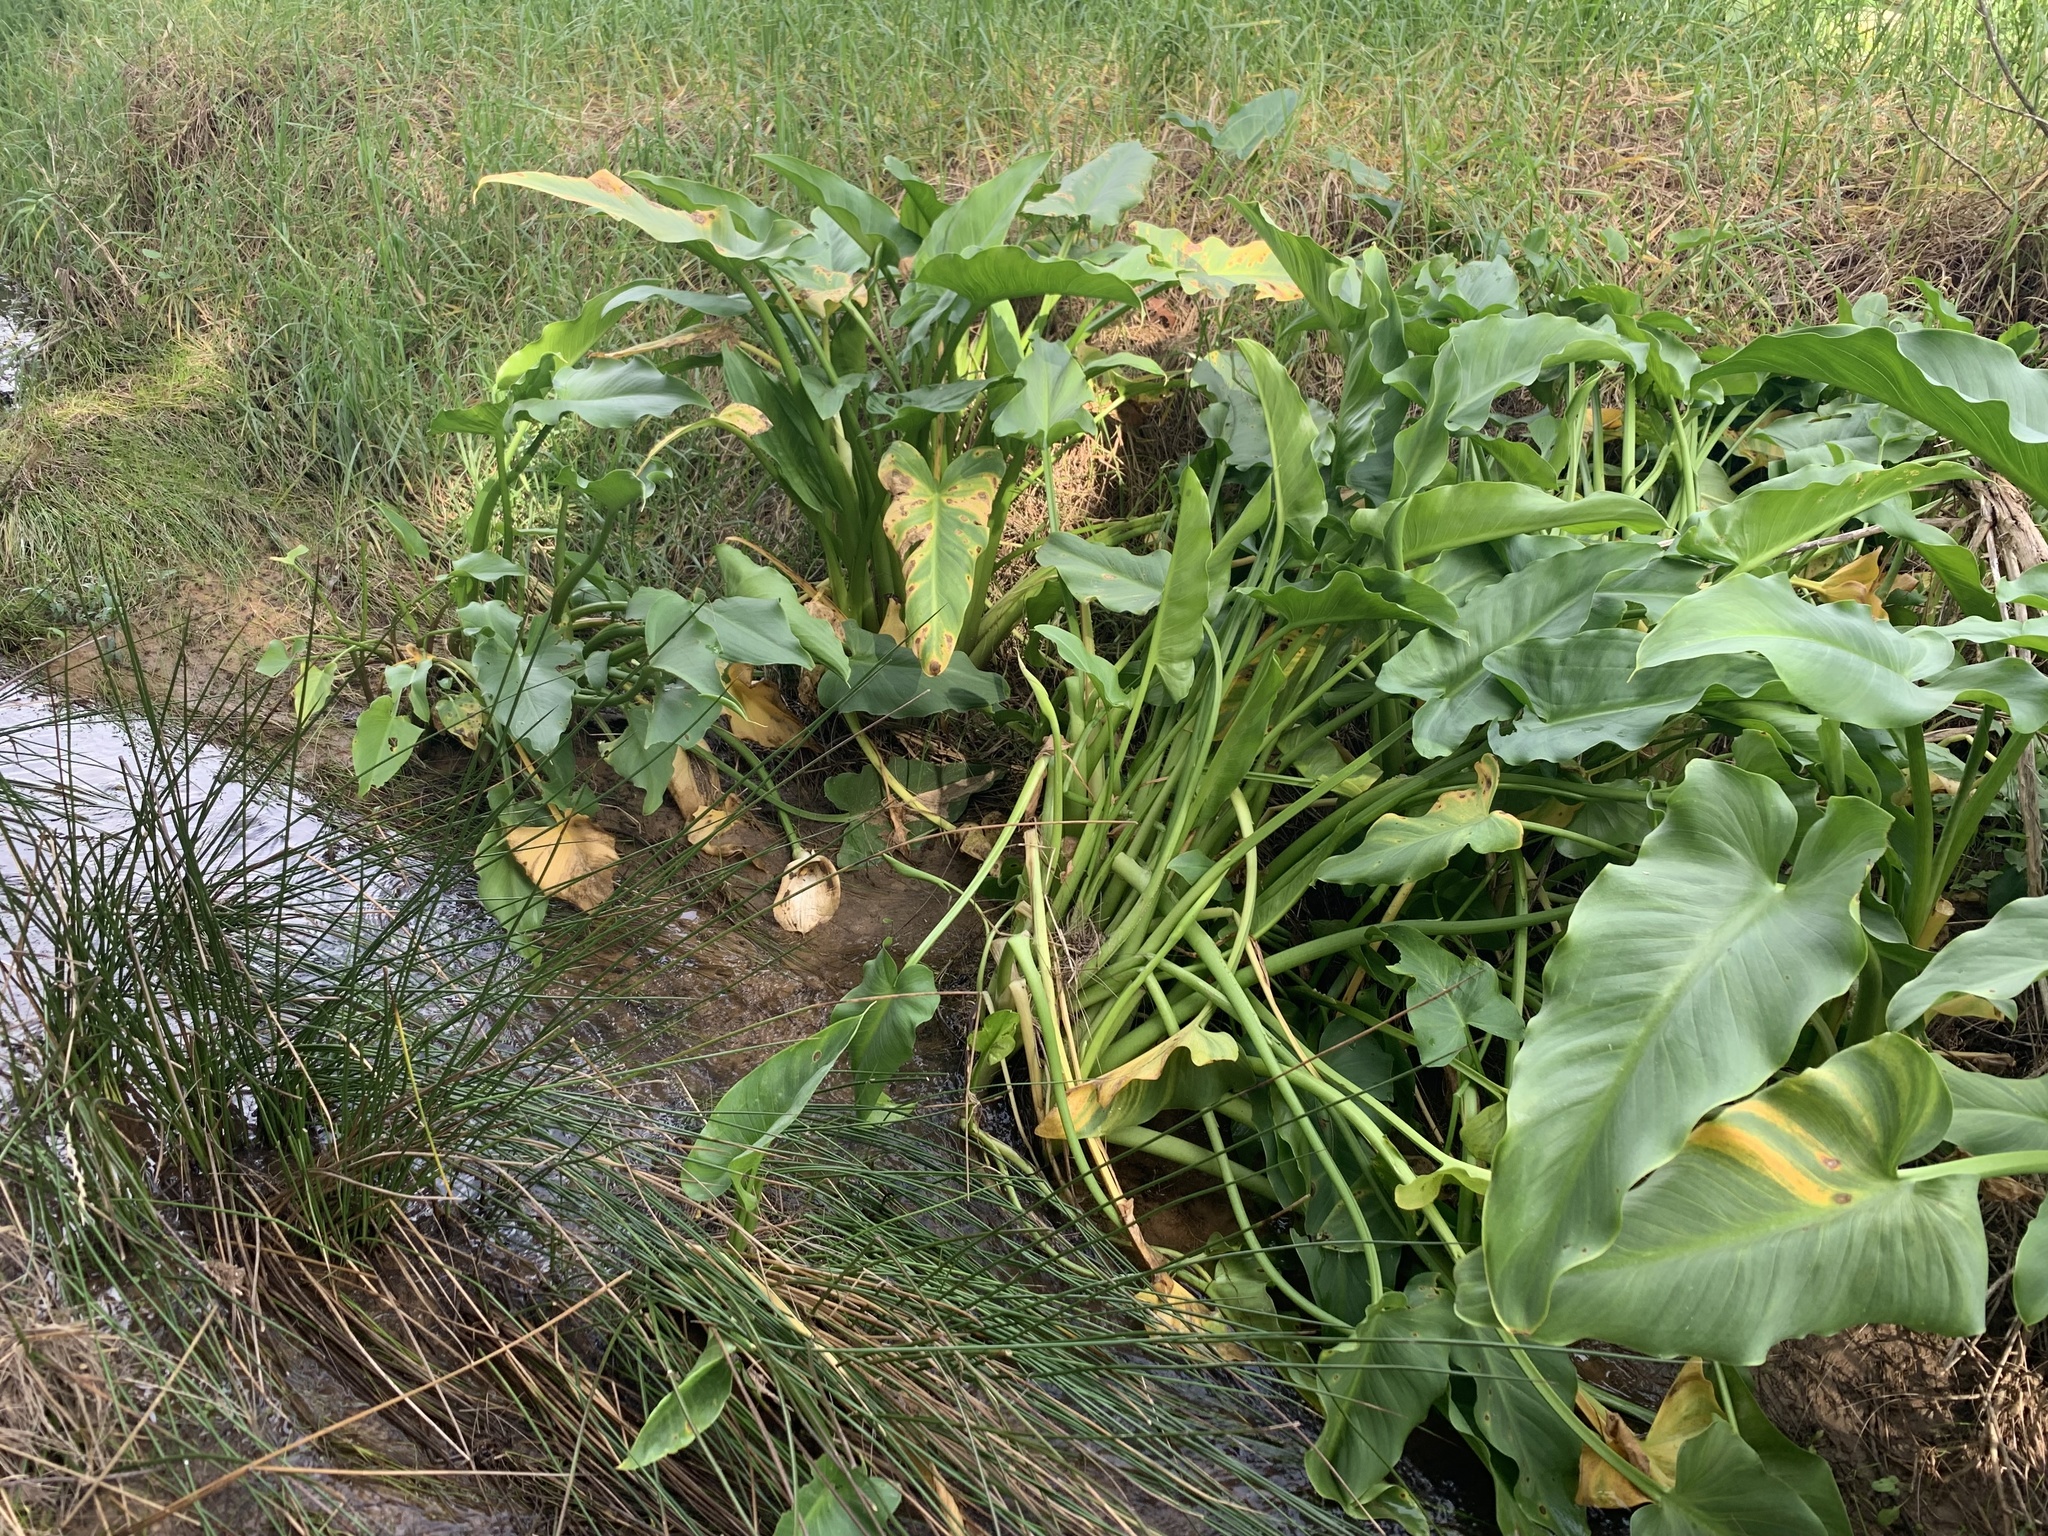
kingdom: Plantae
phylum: Tracheophyta
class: Liliopsida
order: Alismatales
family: Araceae
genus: Zantedeschia
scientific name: Zantedeschia aethiopica
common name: Altar-lily
